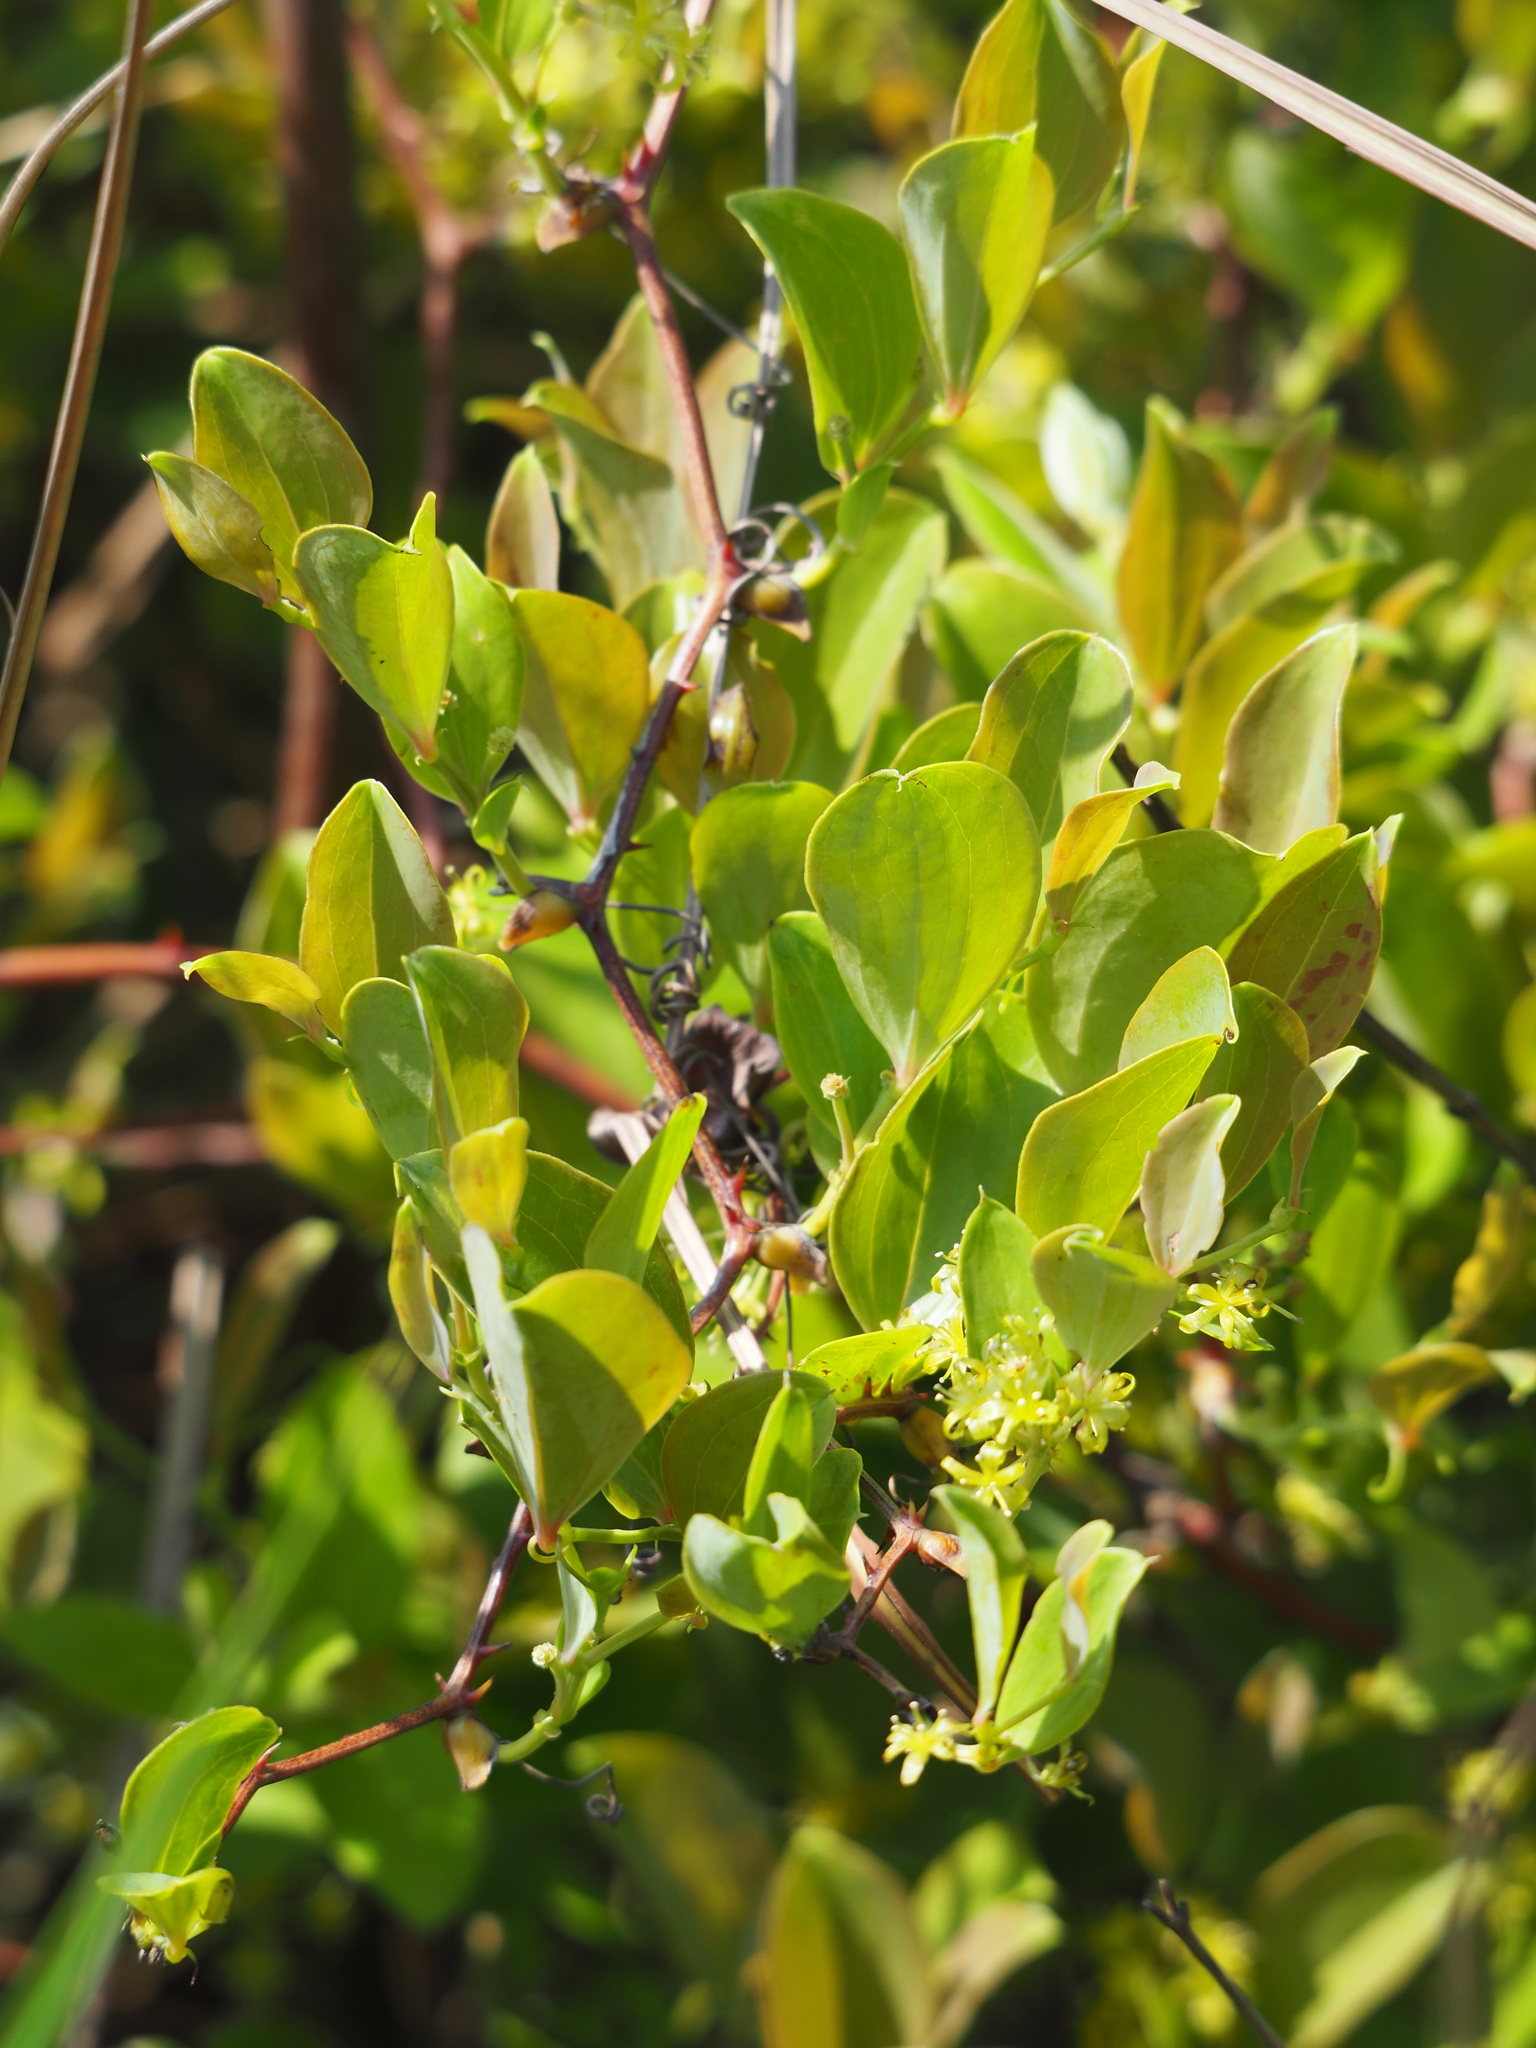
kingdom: Plantae
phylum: Tracheophyta
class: Liliopsida
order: Liliales
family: Smilacaceae
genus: Smilax
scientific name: Smilax china
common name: Chinaroot
